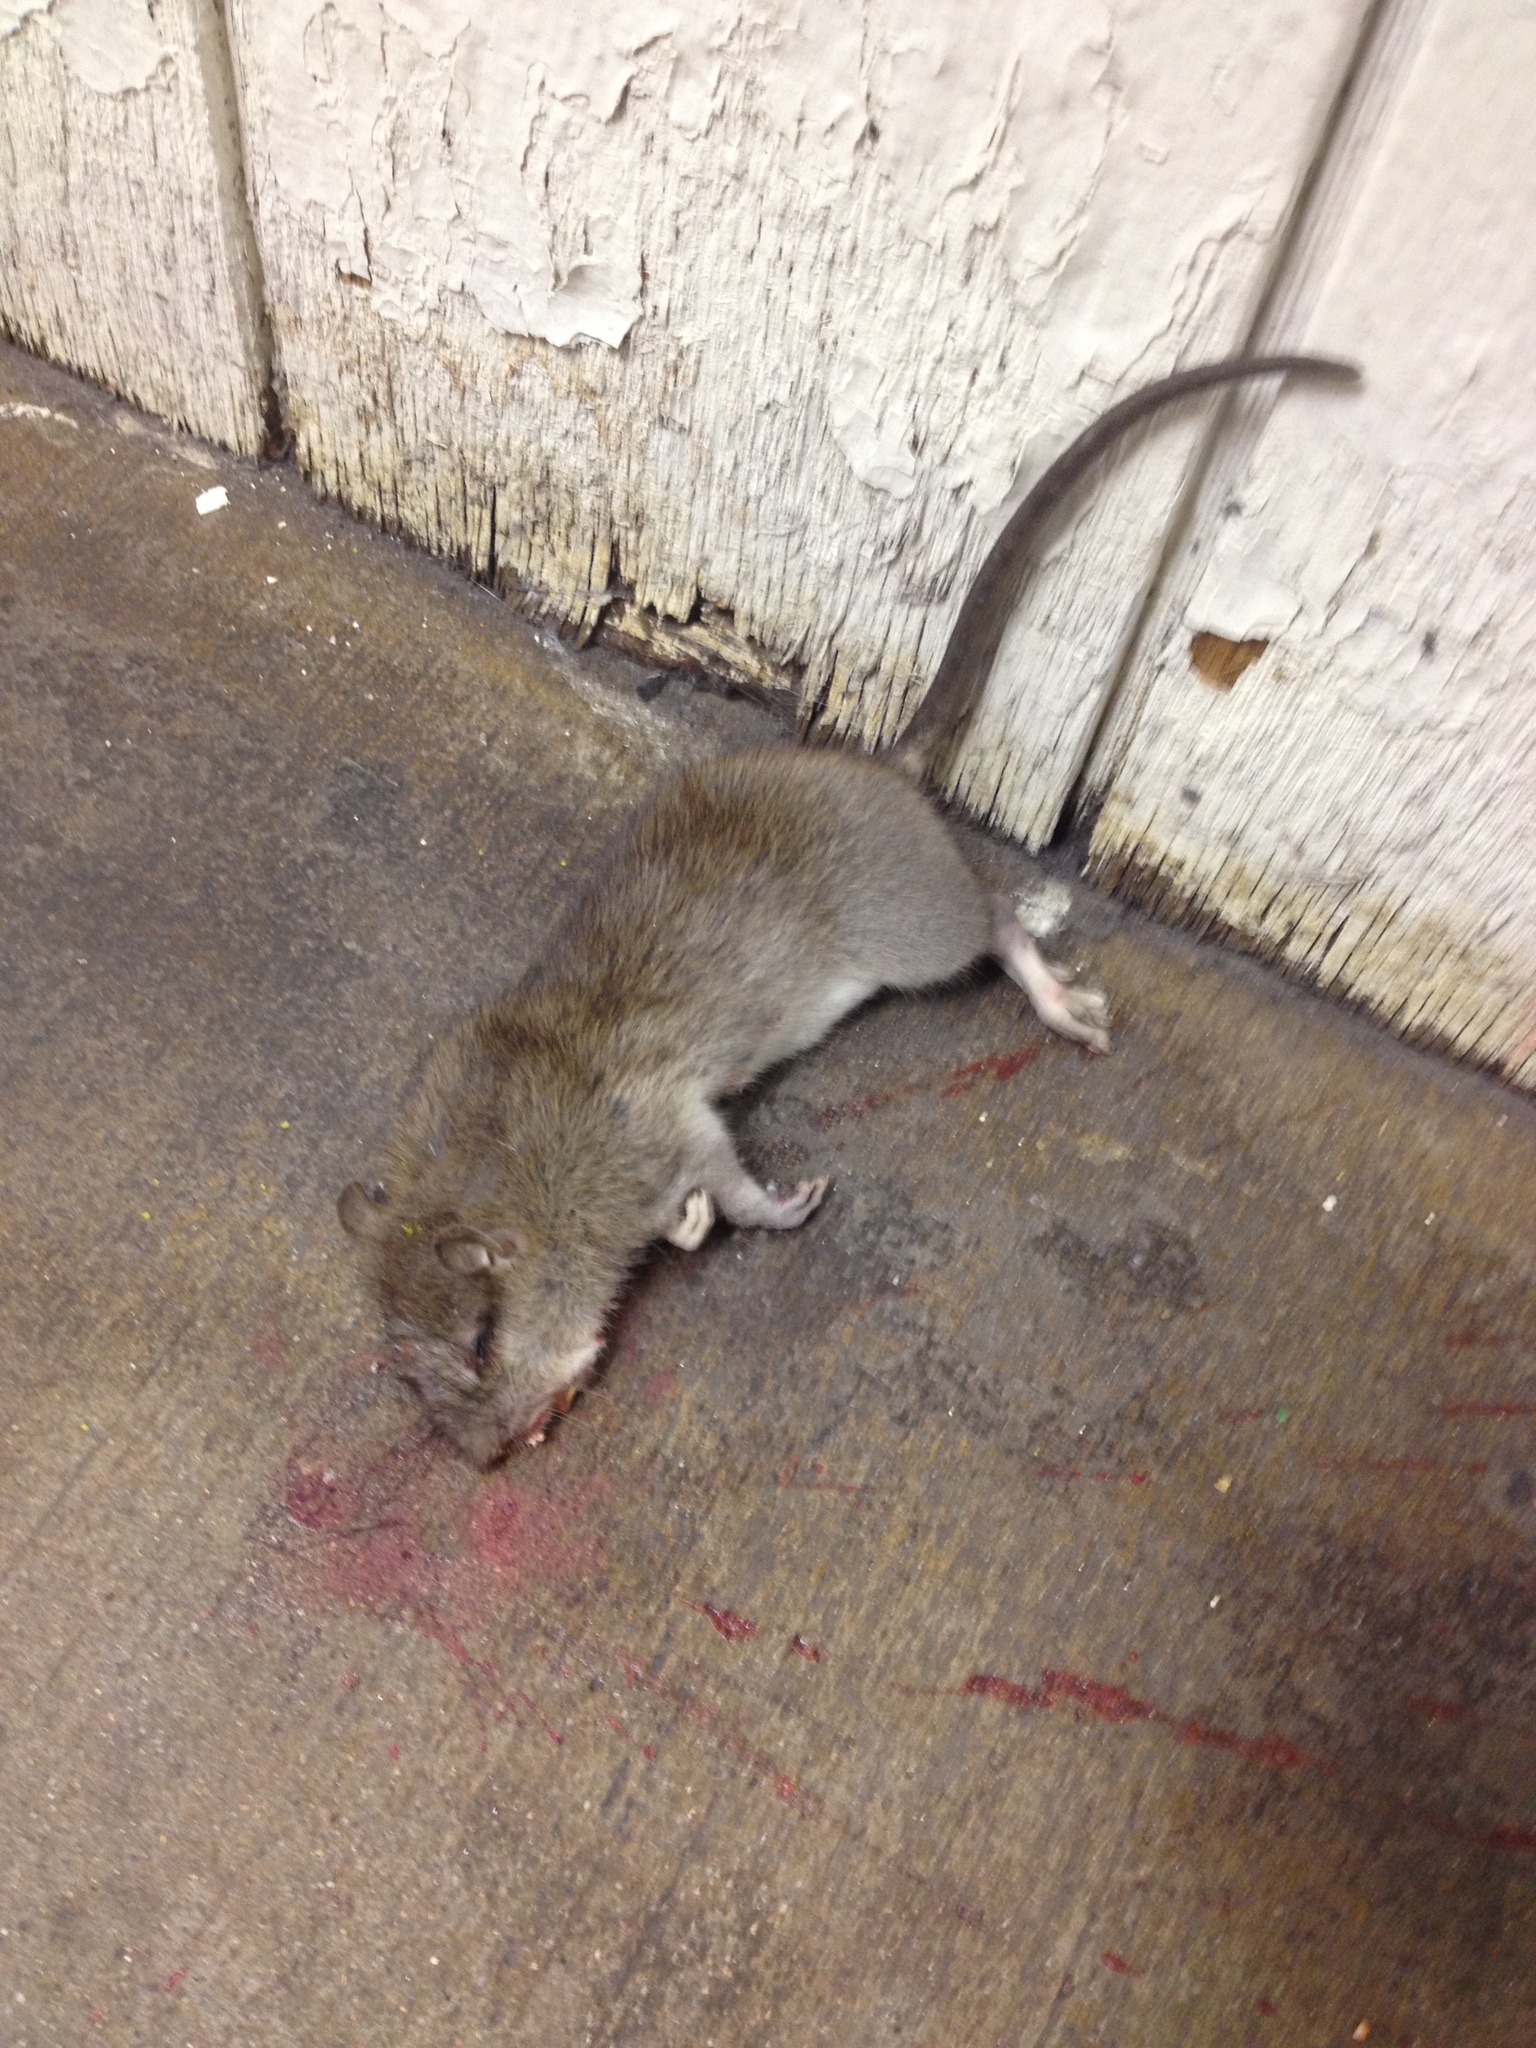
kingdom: Animalia
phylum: Chordata
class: Mammalia
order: Rodentia
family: Muridae
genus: Rattus
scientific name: Rattus norvegicus
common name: Brown rat
